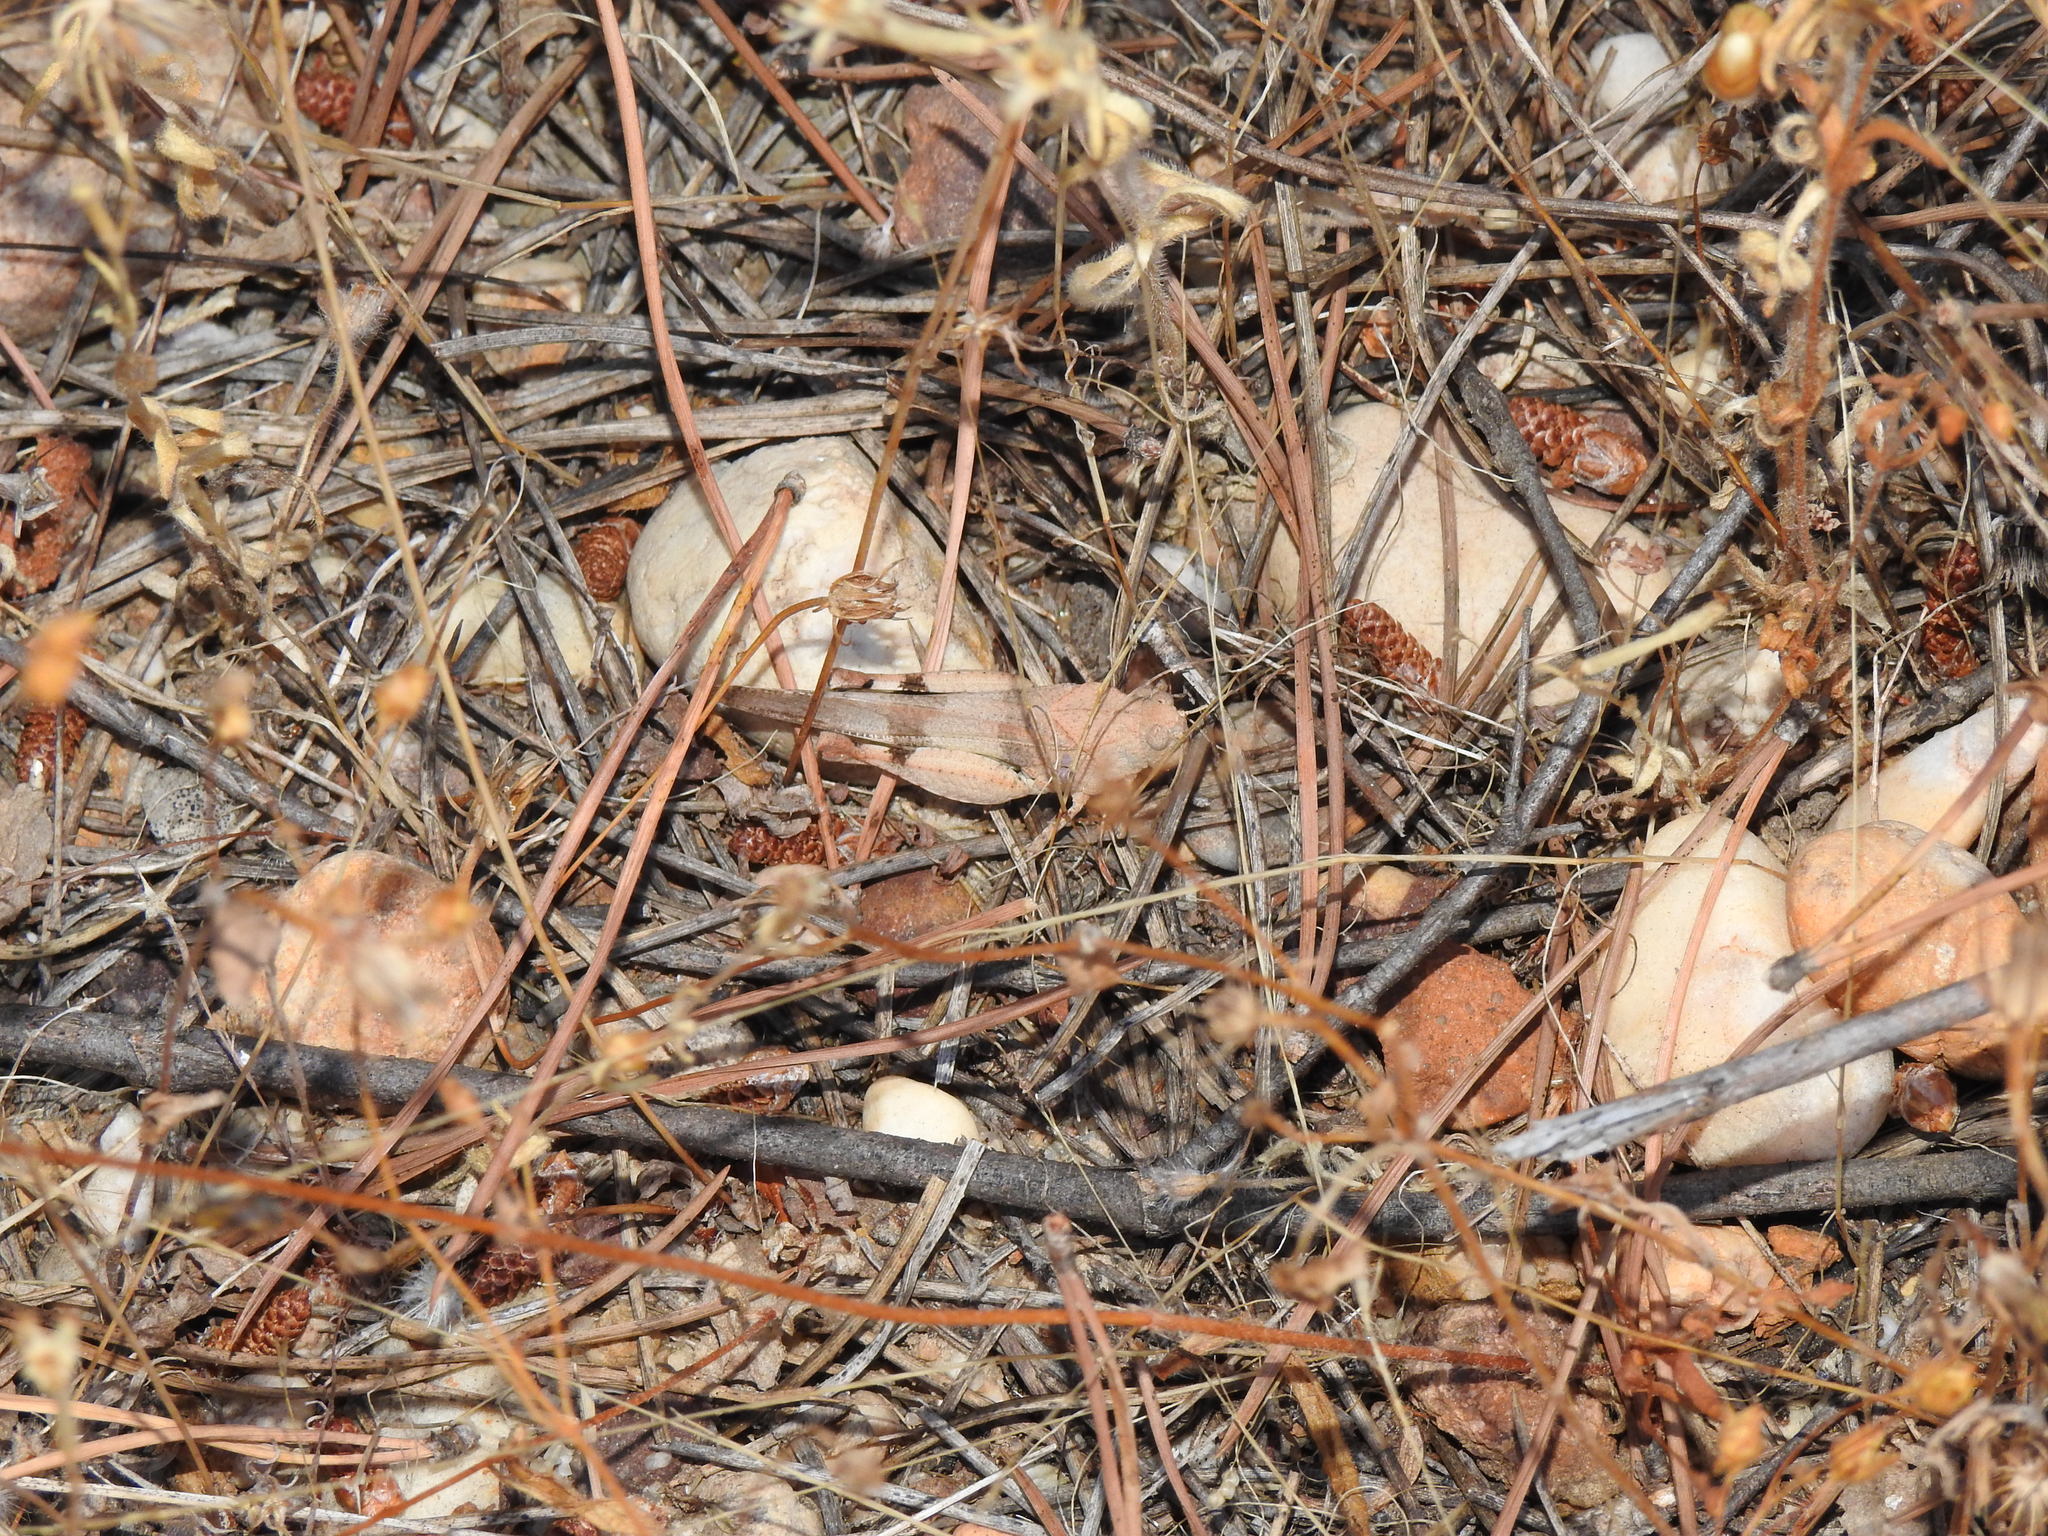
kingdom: Animalia
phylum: Arthropoda
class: Insecta
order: Orthoptera
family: Acrididae
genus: Oedipoda
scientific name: Oedipoda caerulescens
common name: Blue-winged grasshopper
